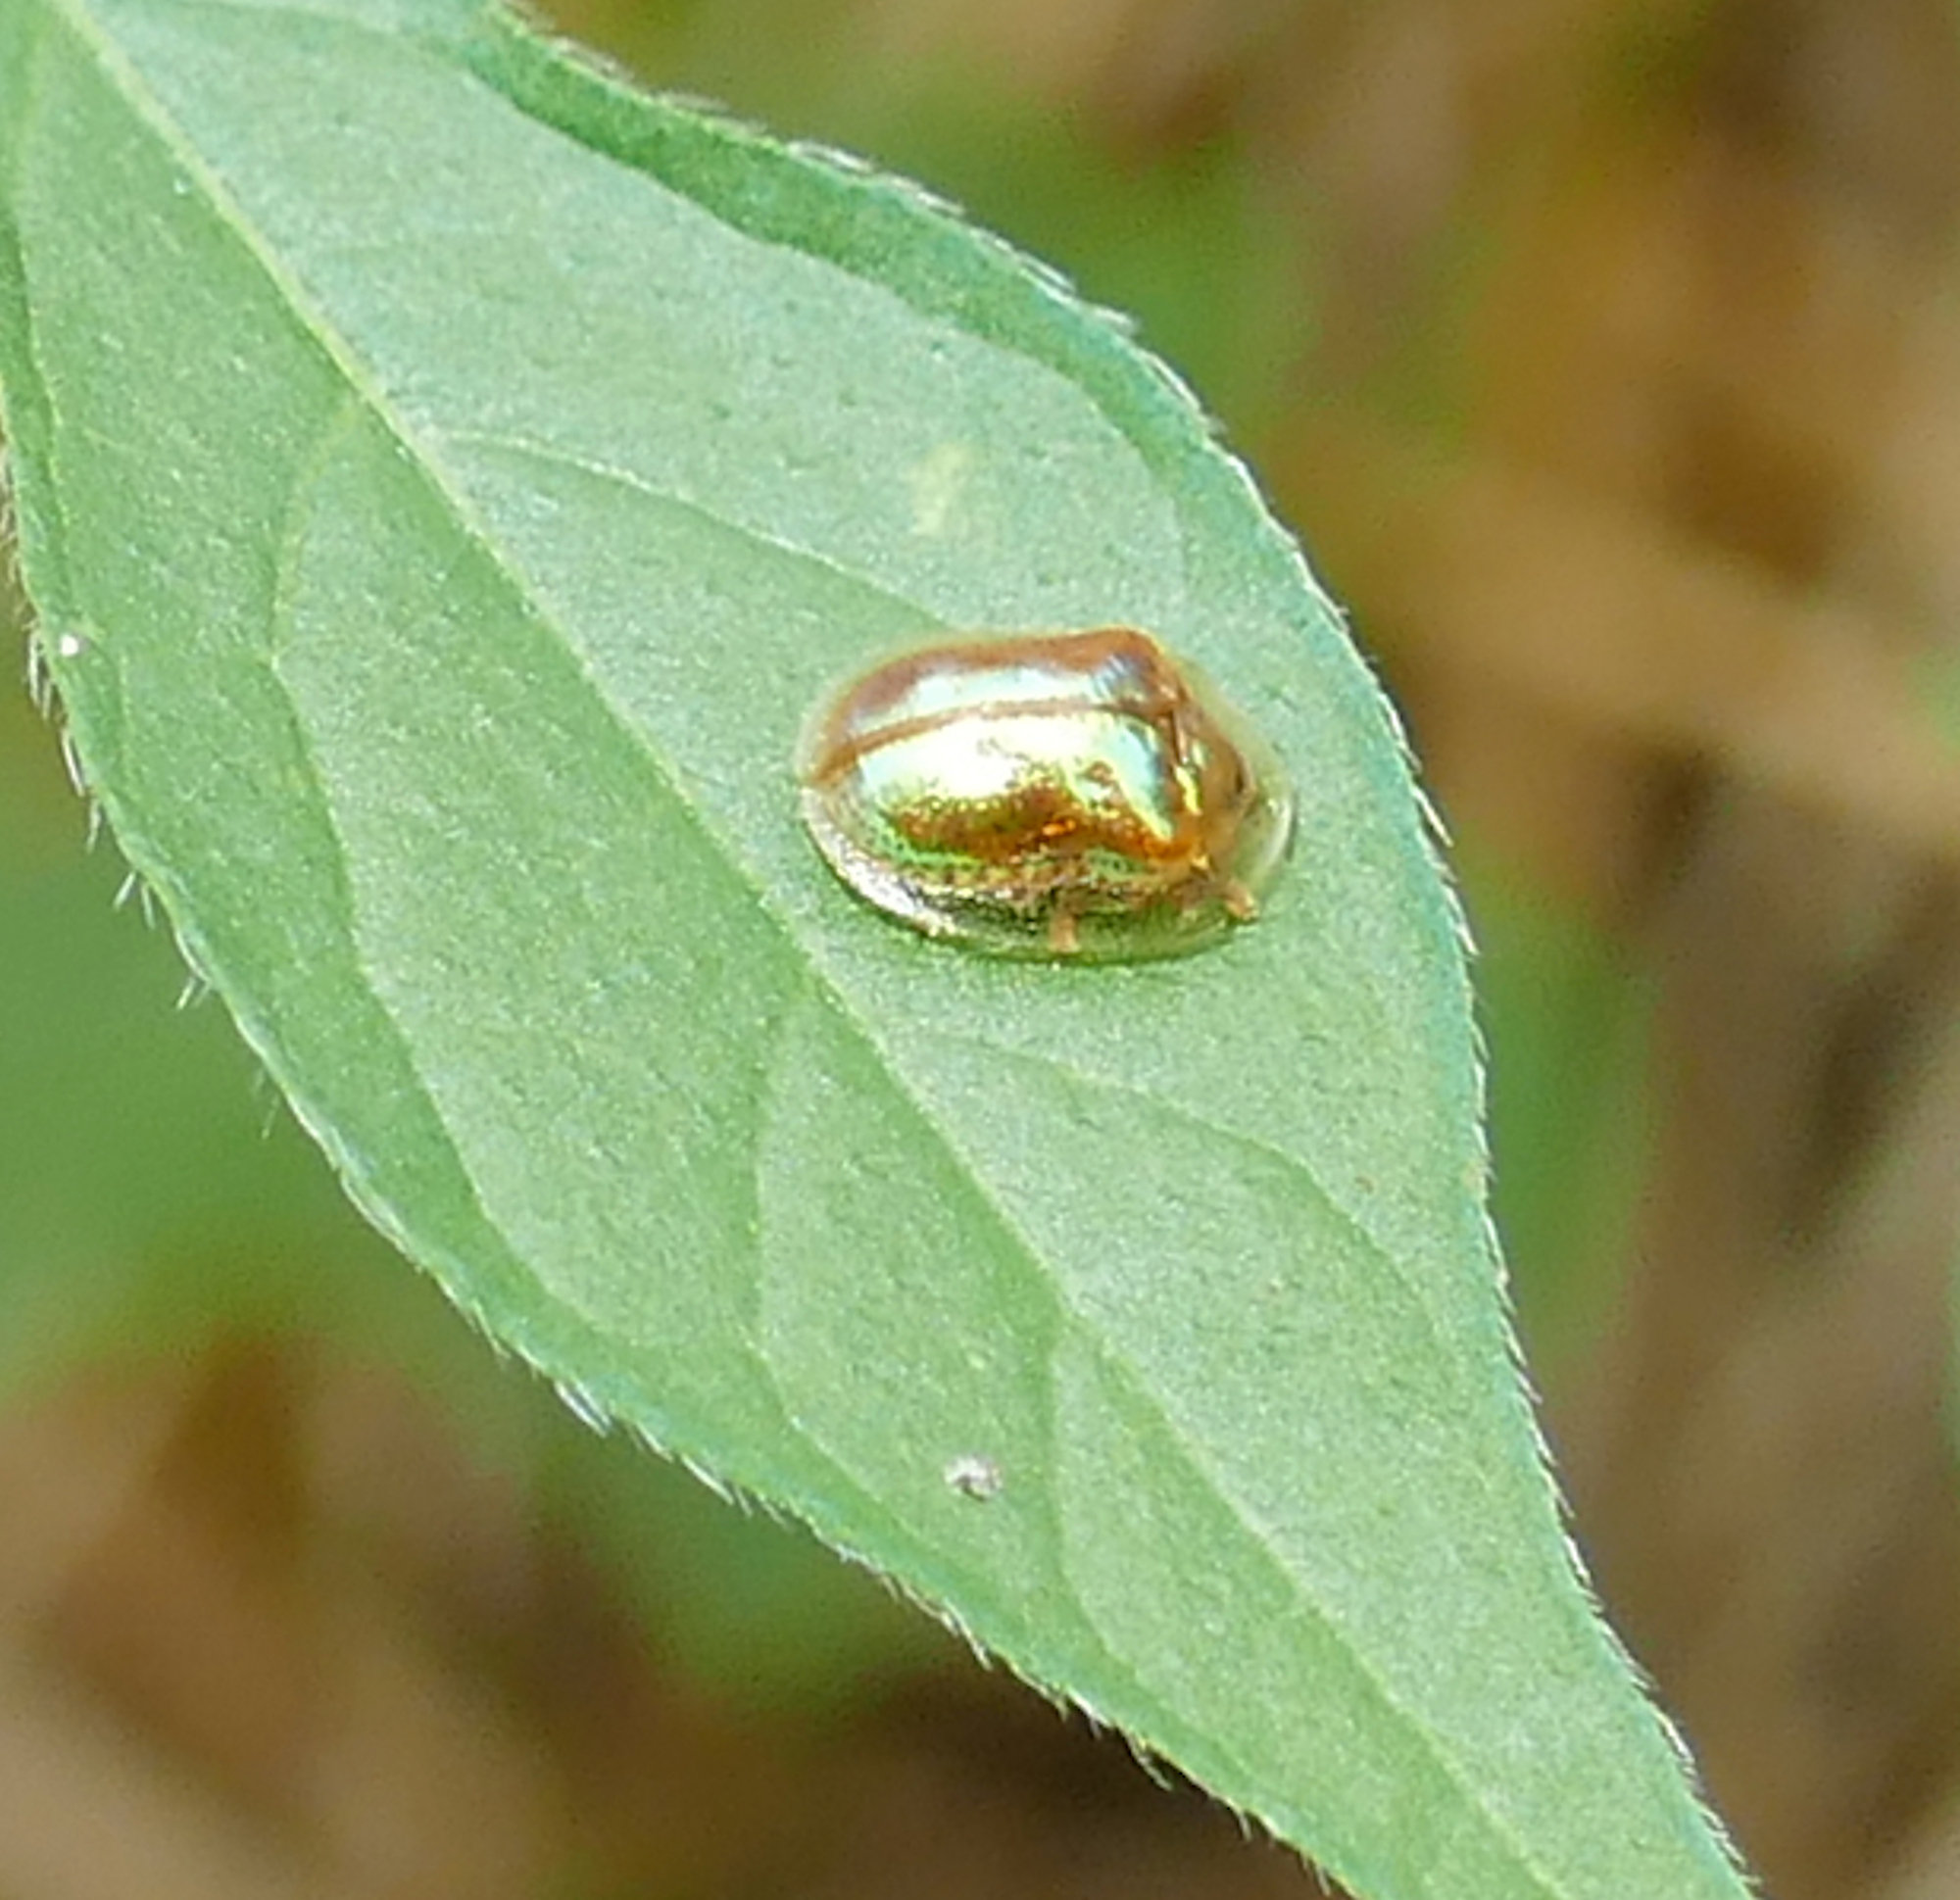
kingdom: Animalia
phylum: Arthropoda
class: Insecta
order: Coleoptera
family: Chrysomelidae
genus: Metrionella
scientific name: Metrionella bilimeki
